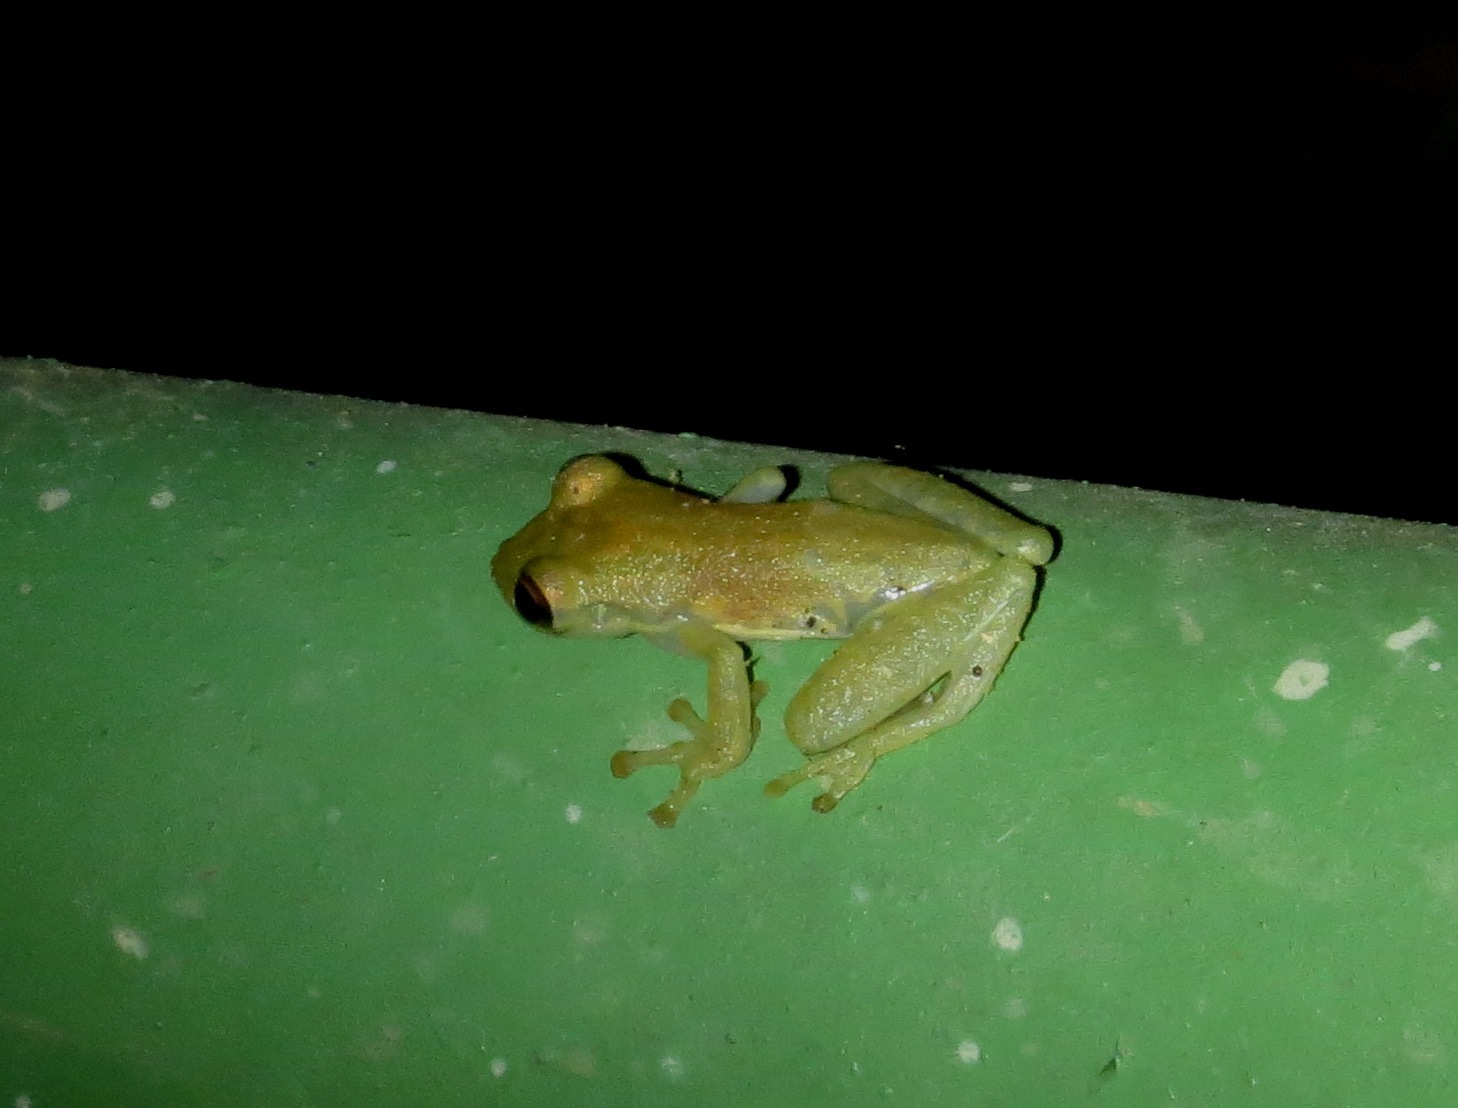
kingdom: Animalia
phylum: Chordata
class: Amphibia
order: Anura
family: Hylidae
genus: Dendropsophus
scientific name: Dendropsophus microcephalus
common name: Small-headed treefrog
